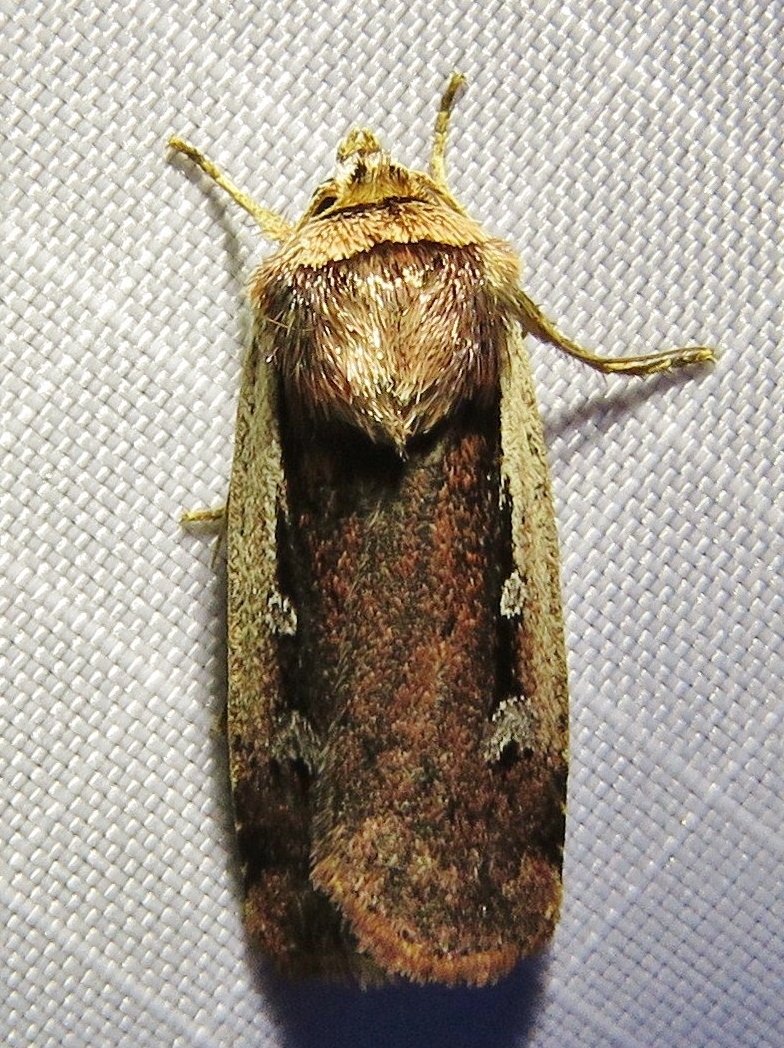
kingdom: Animalia
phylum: Arthropoda
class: Insecta
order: Lepidoptera
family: Noctuidae
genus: Ochropleura
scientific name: Ochropleura plecta
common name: Flame shoulder
